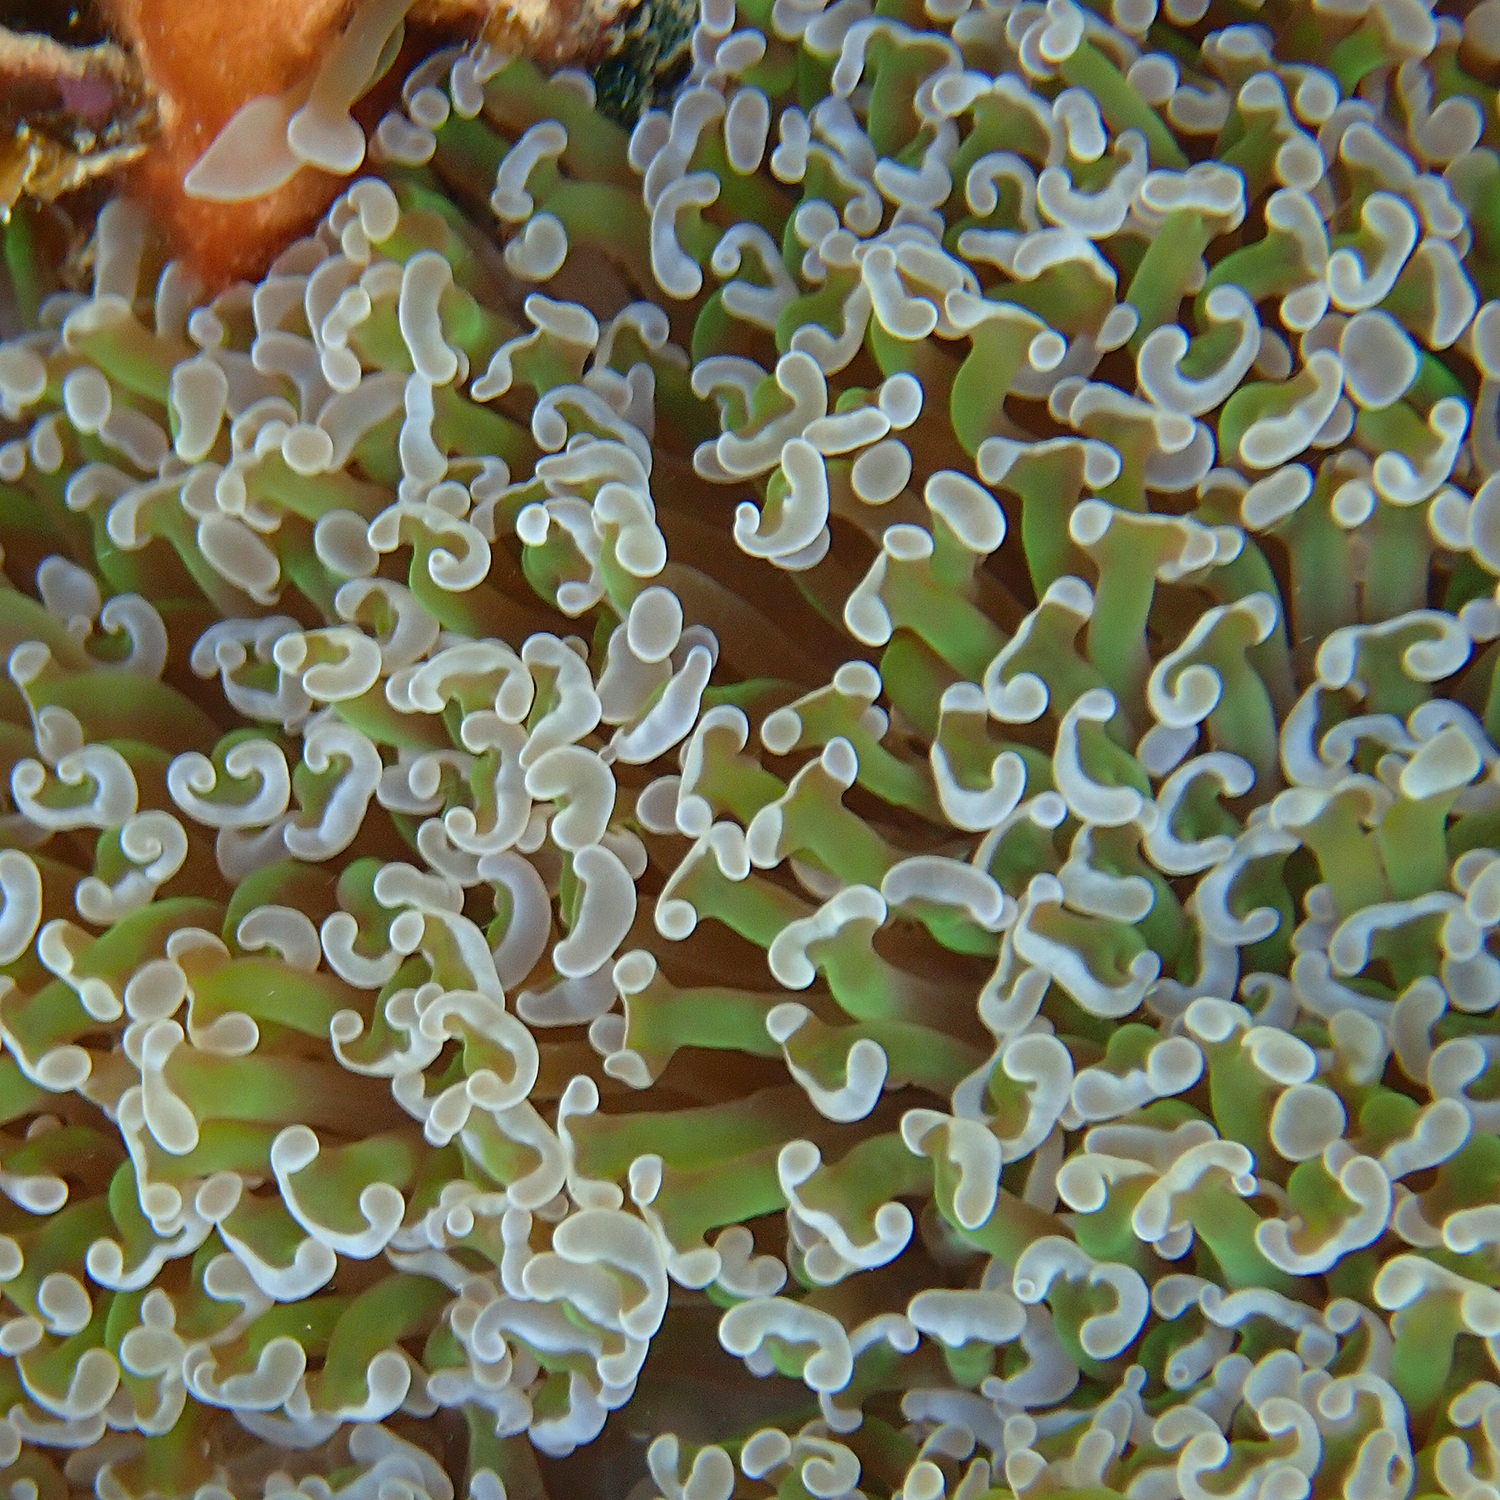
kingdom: Animalia
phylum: Cnidaria
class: Anthozoa
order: Scleractinia
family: Euphylliidae
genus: Fimbriaphyllia
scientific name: Fimbriaphyllia ancora
